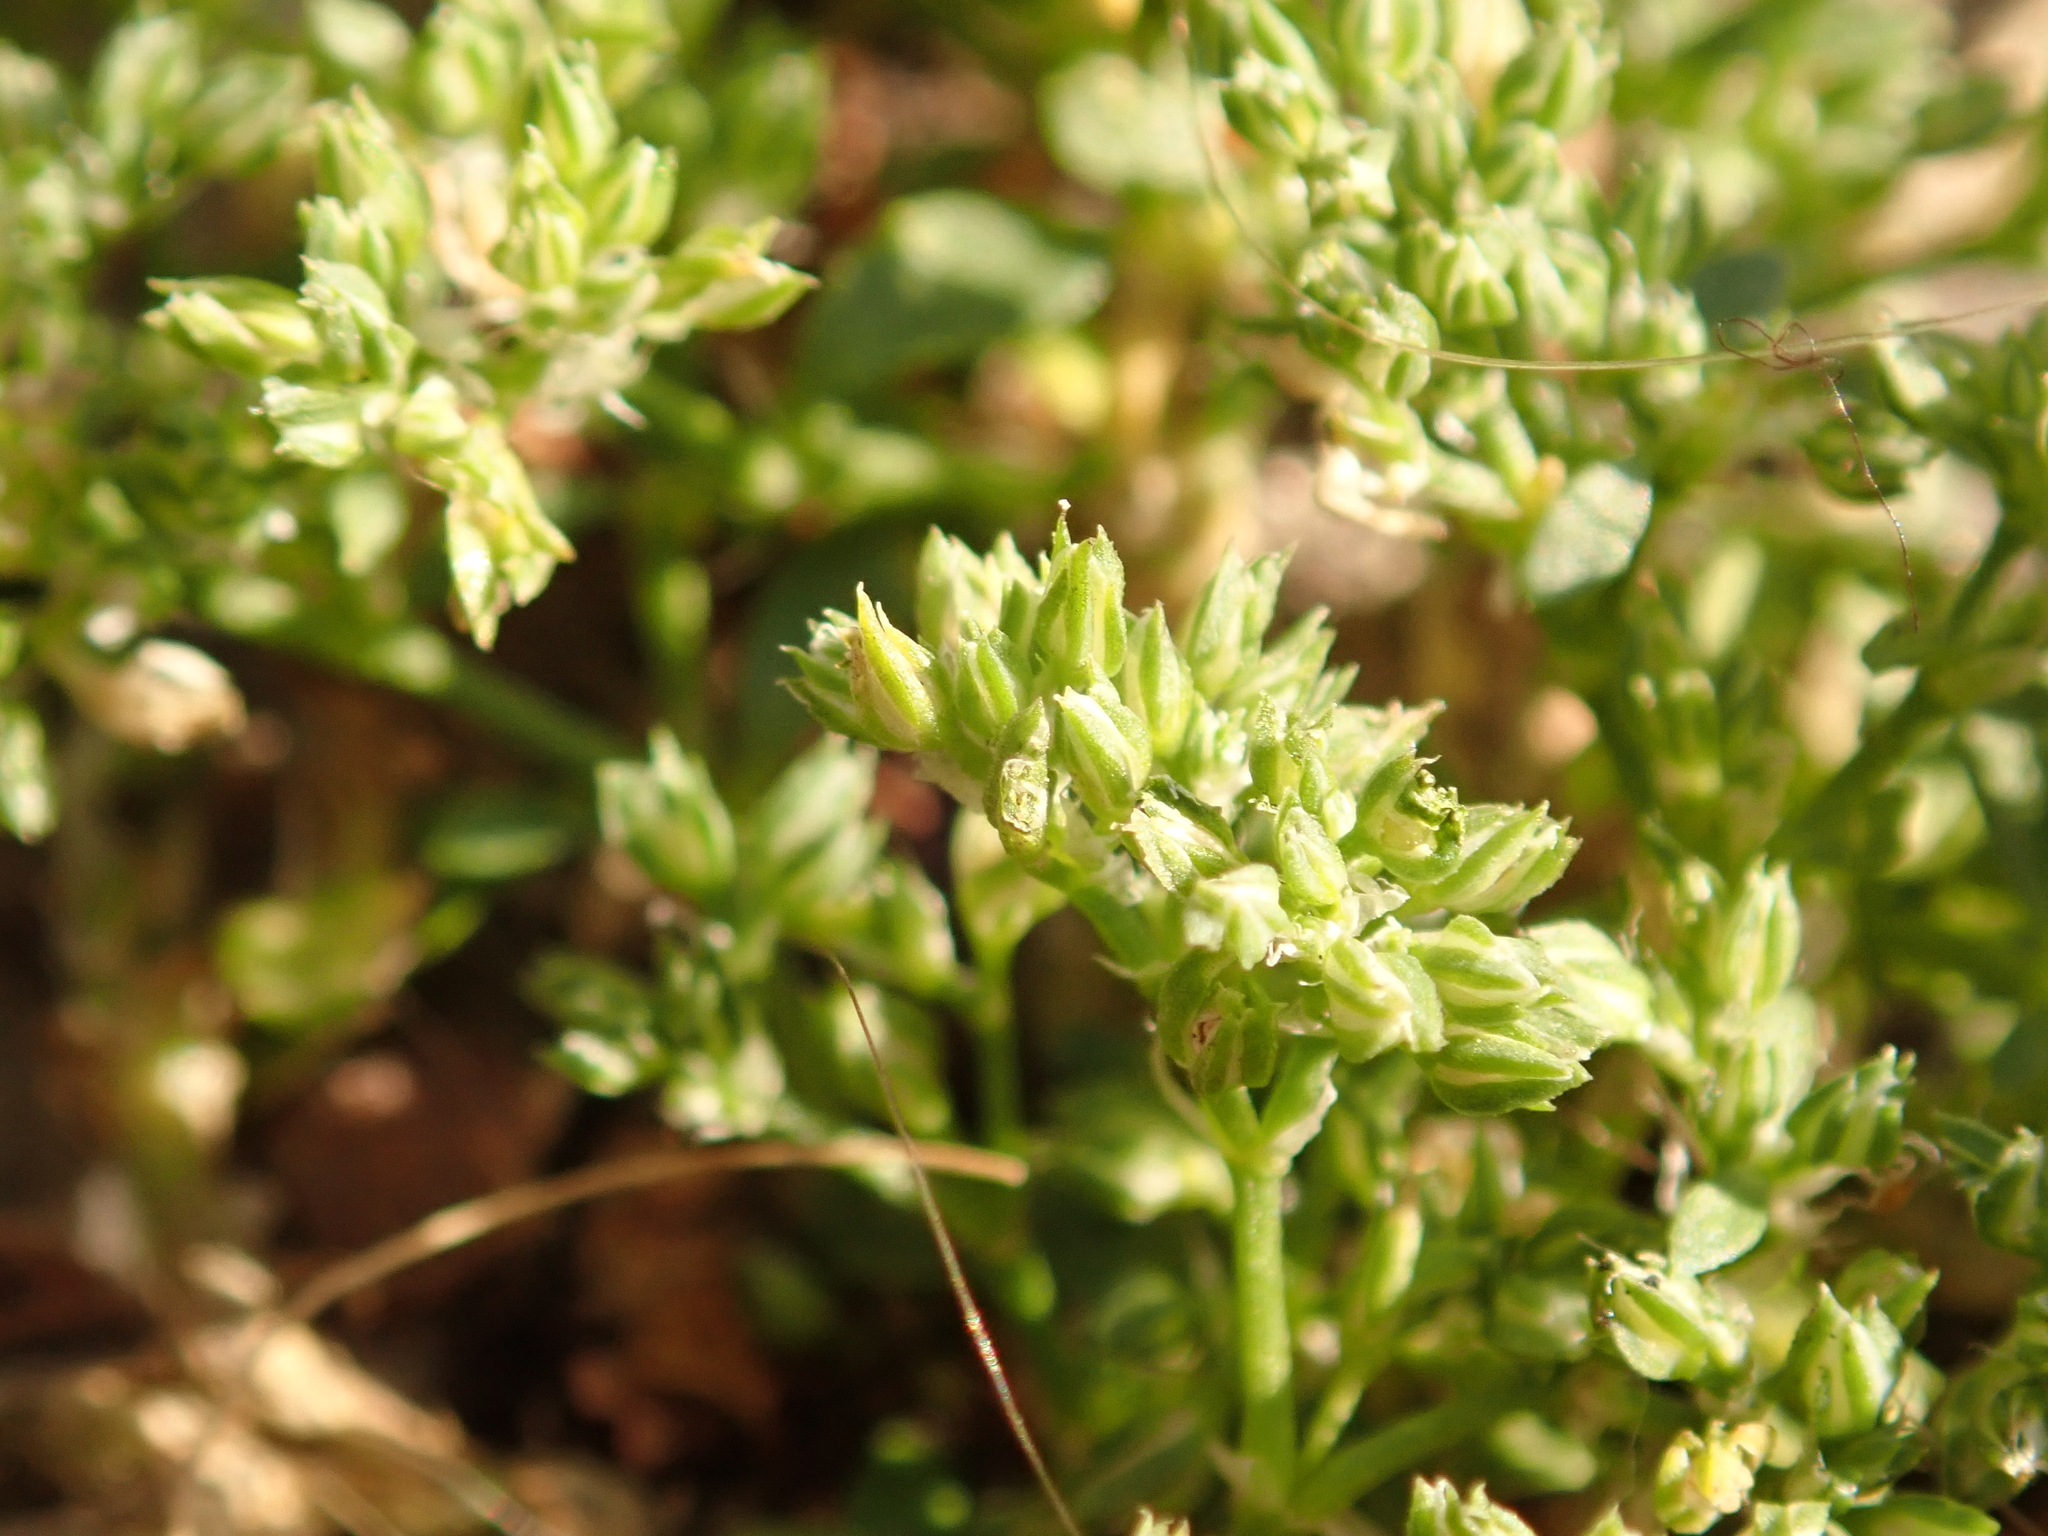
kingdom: Plantae
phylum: Tracheophyta
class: Magnoliopsida
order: Caryophyllales
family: Caryophyllaceae
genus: Polycarpon
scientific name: Polycarpon tetraphyllum
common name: Four-leaved all-seed
